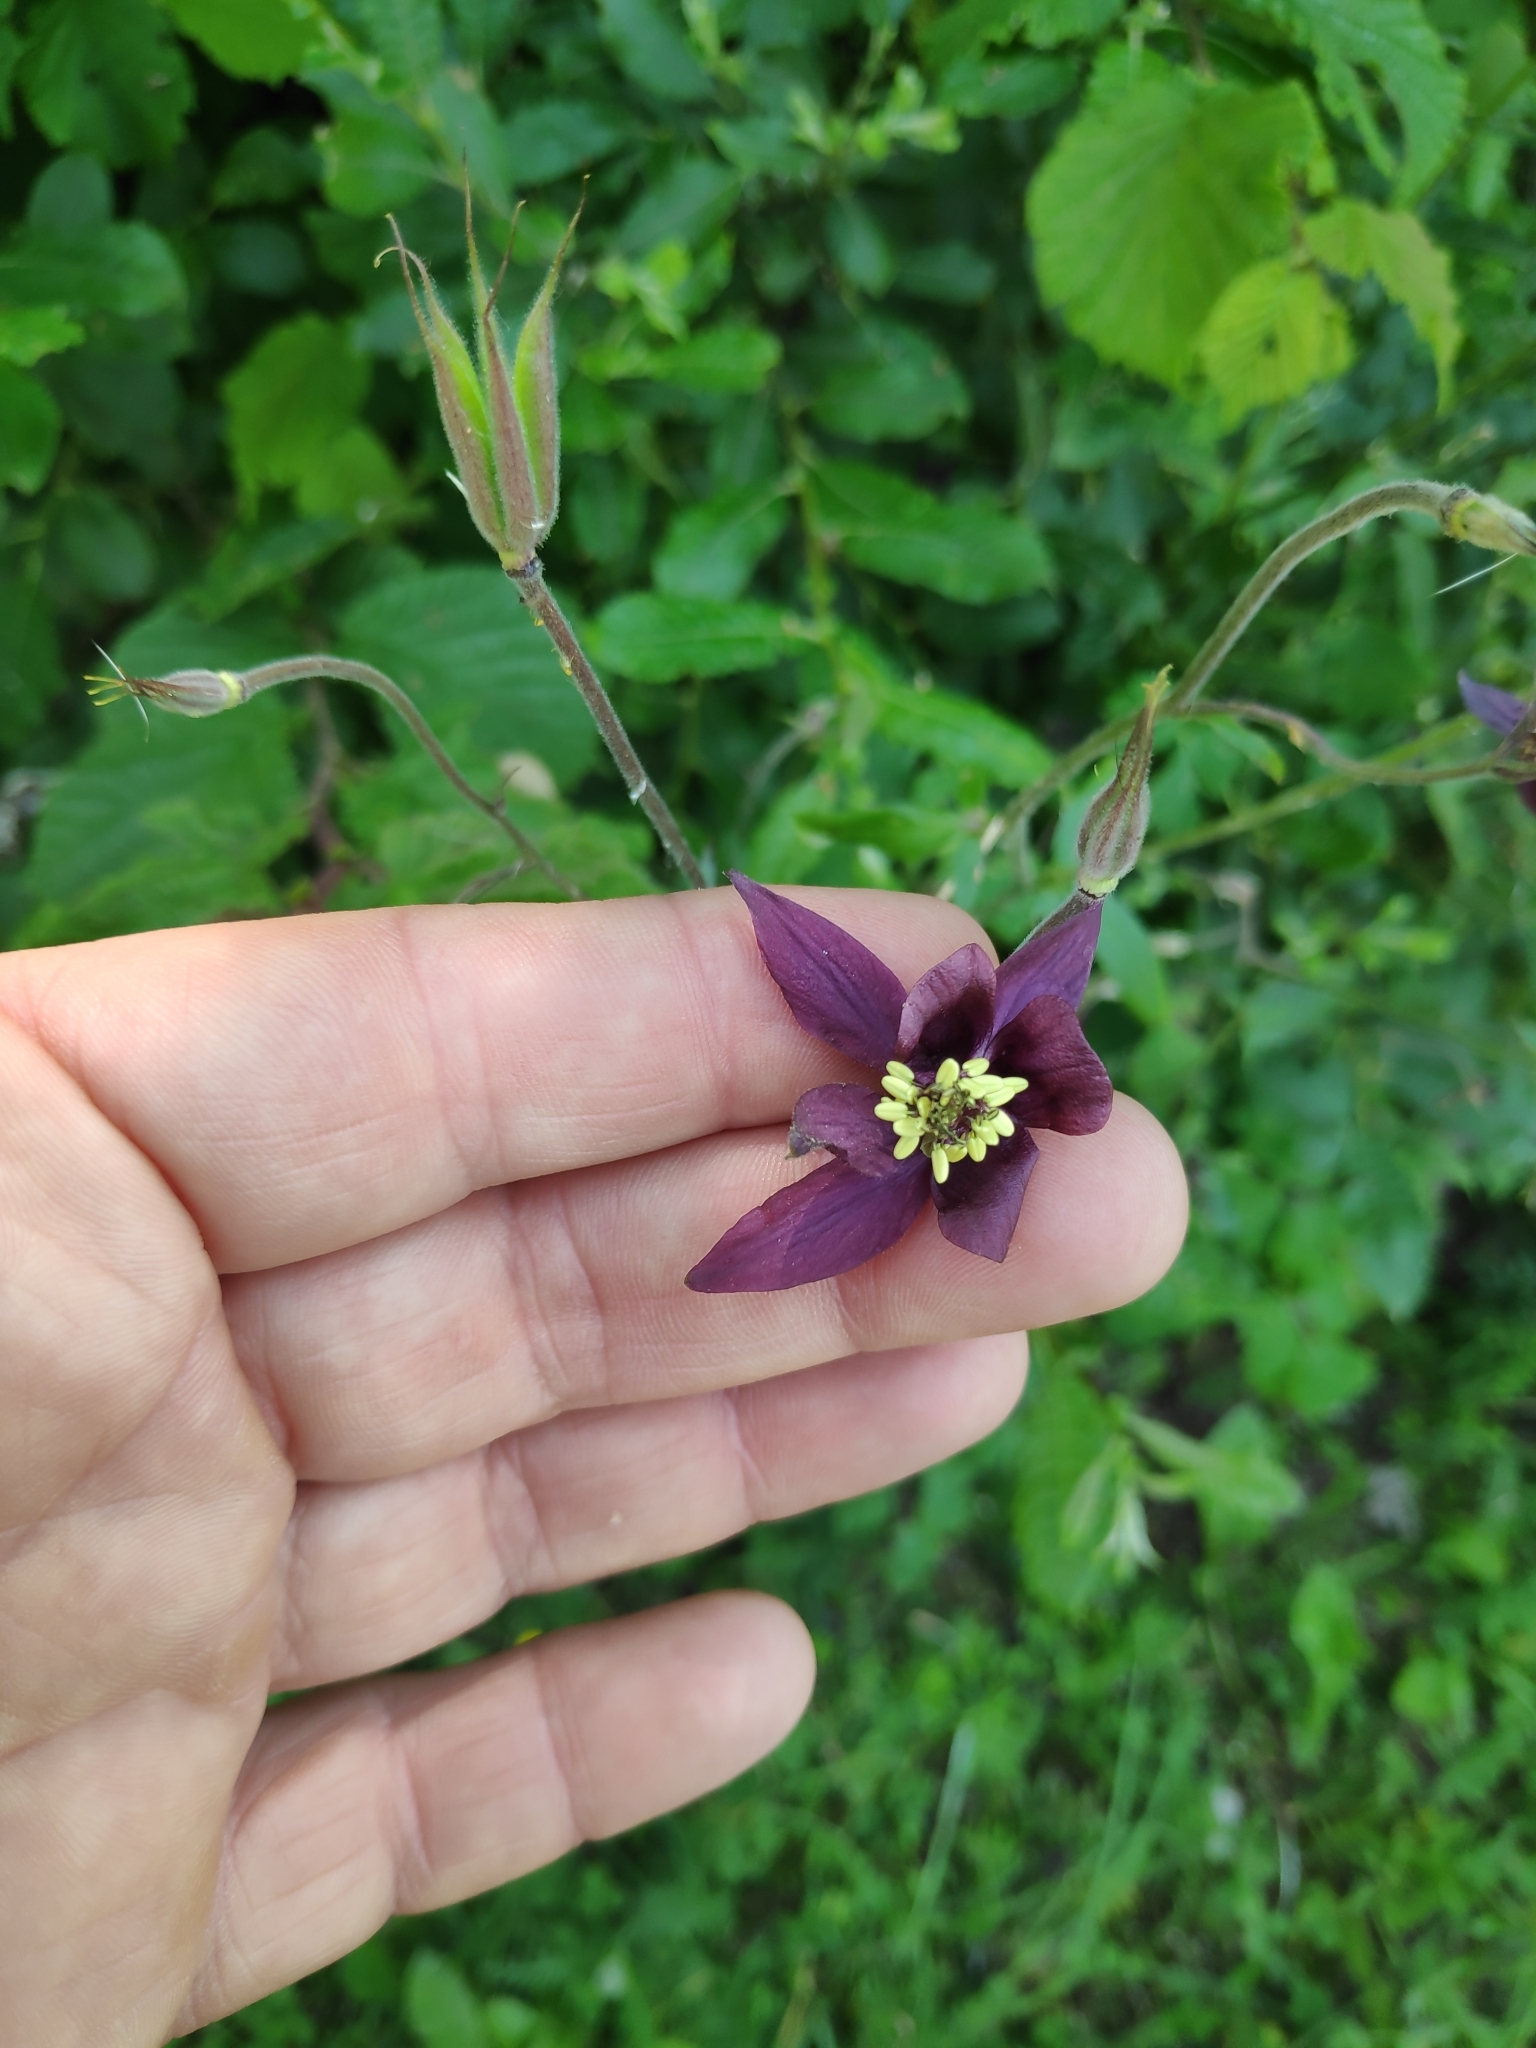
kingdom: Plantae
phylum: Tracheophyta
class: Magnoliopsida
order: Ranunculales
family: Ranunculaceae
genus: Aquilegia
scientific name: Aquilegia atrata
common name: Dark columbine
